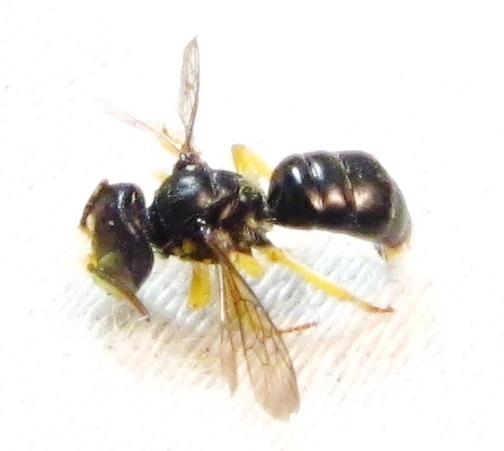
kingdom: Animalia
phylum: Arthropoda
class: Insecta
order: Hymenoptera
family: Andrenidae
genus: Calliopsis
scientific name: Calliopsis andreniformis
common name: Eastern calliopsis bee
